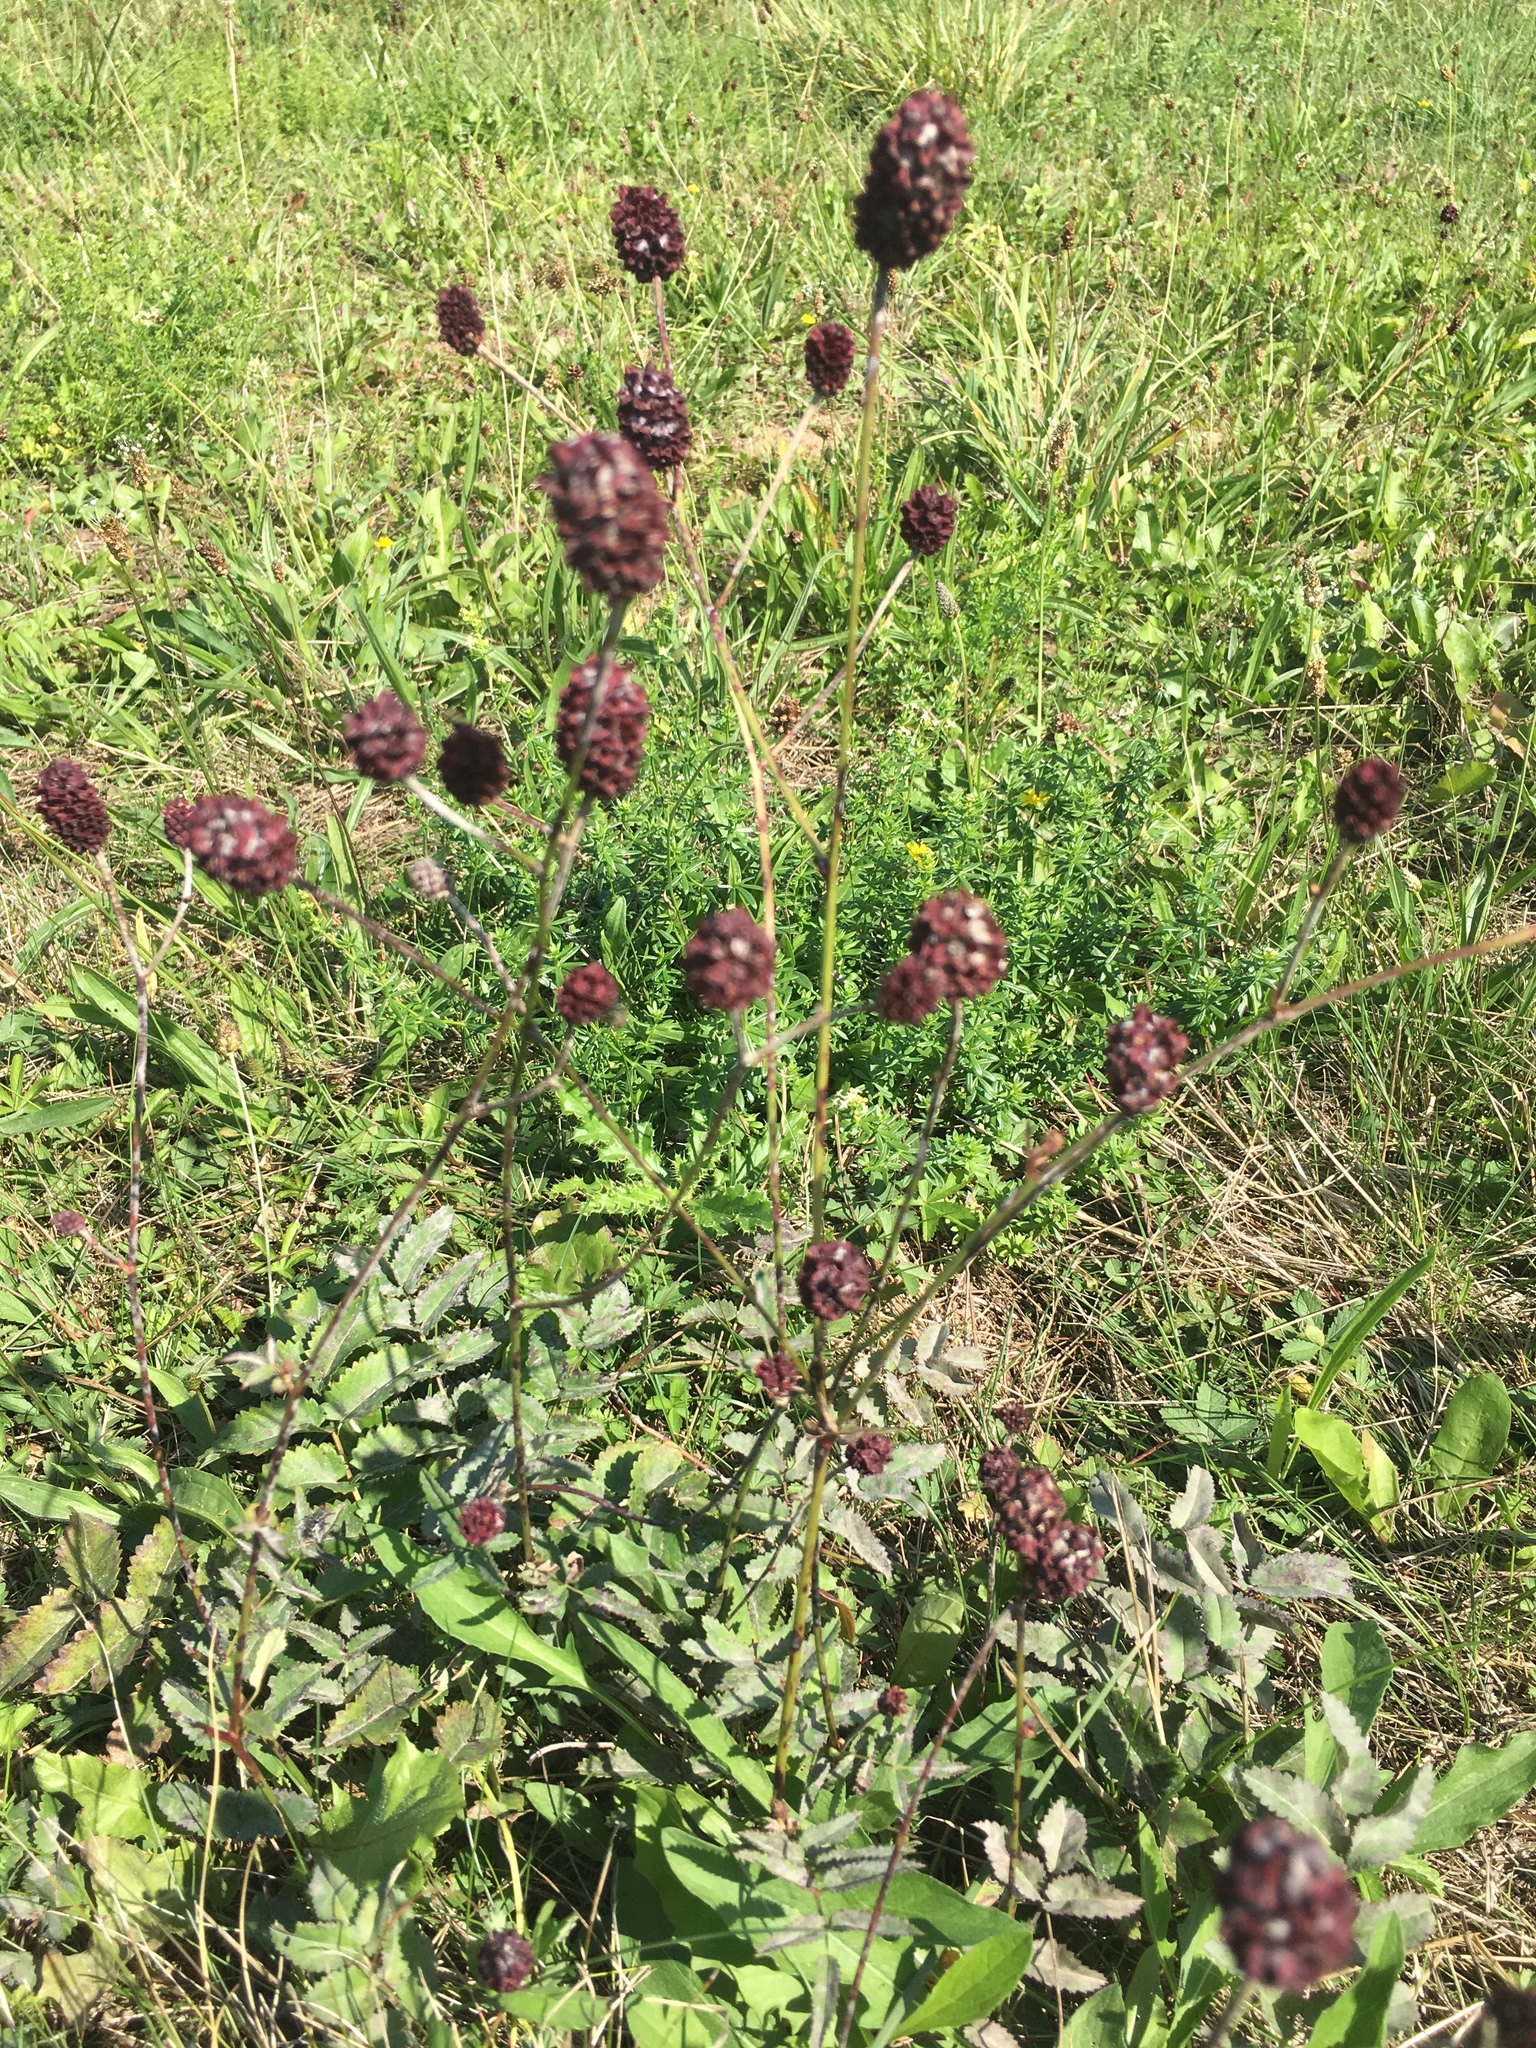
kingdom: Plantae
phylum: Tracheophyta
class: Magnoliopsida
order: Rosales
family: Rosaceae
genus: Sanguisorba
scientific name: Sanguisorba officinalis
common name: Great burnet
